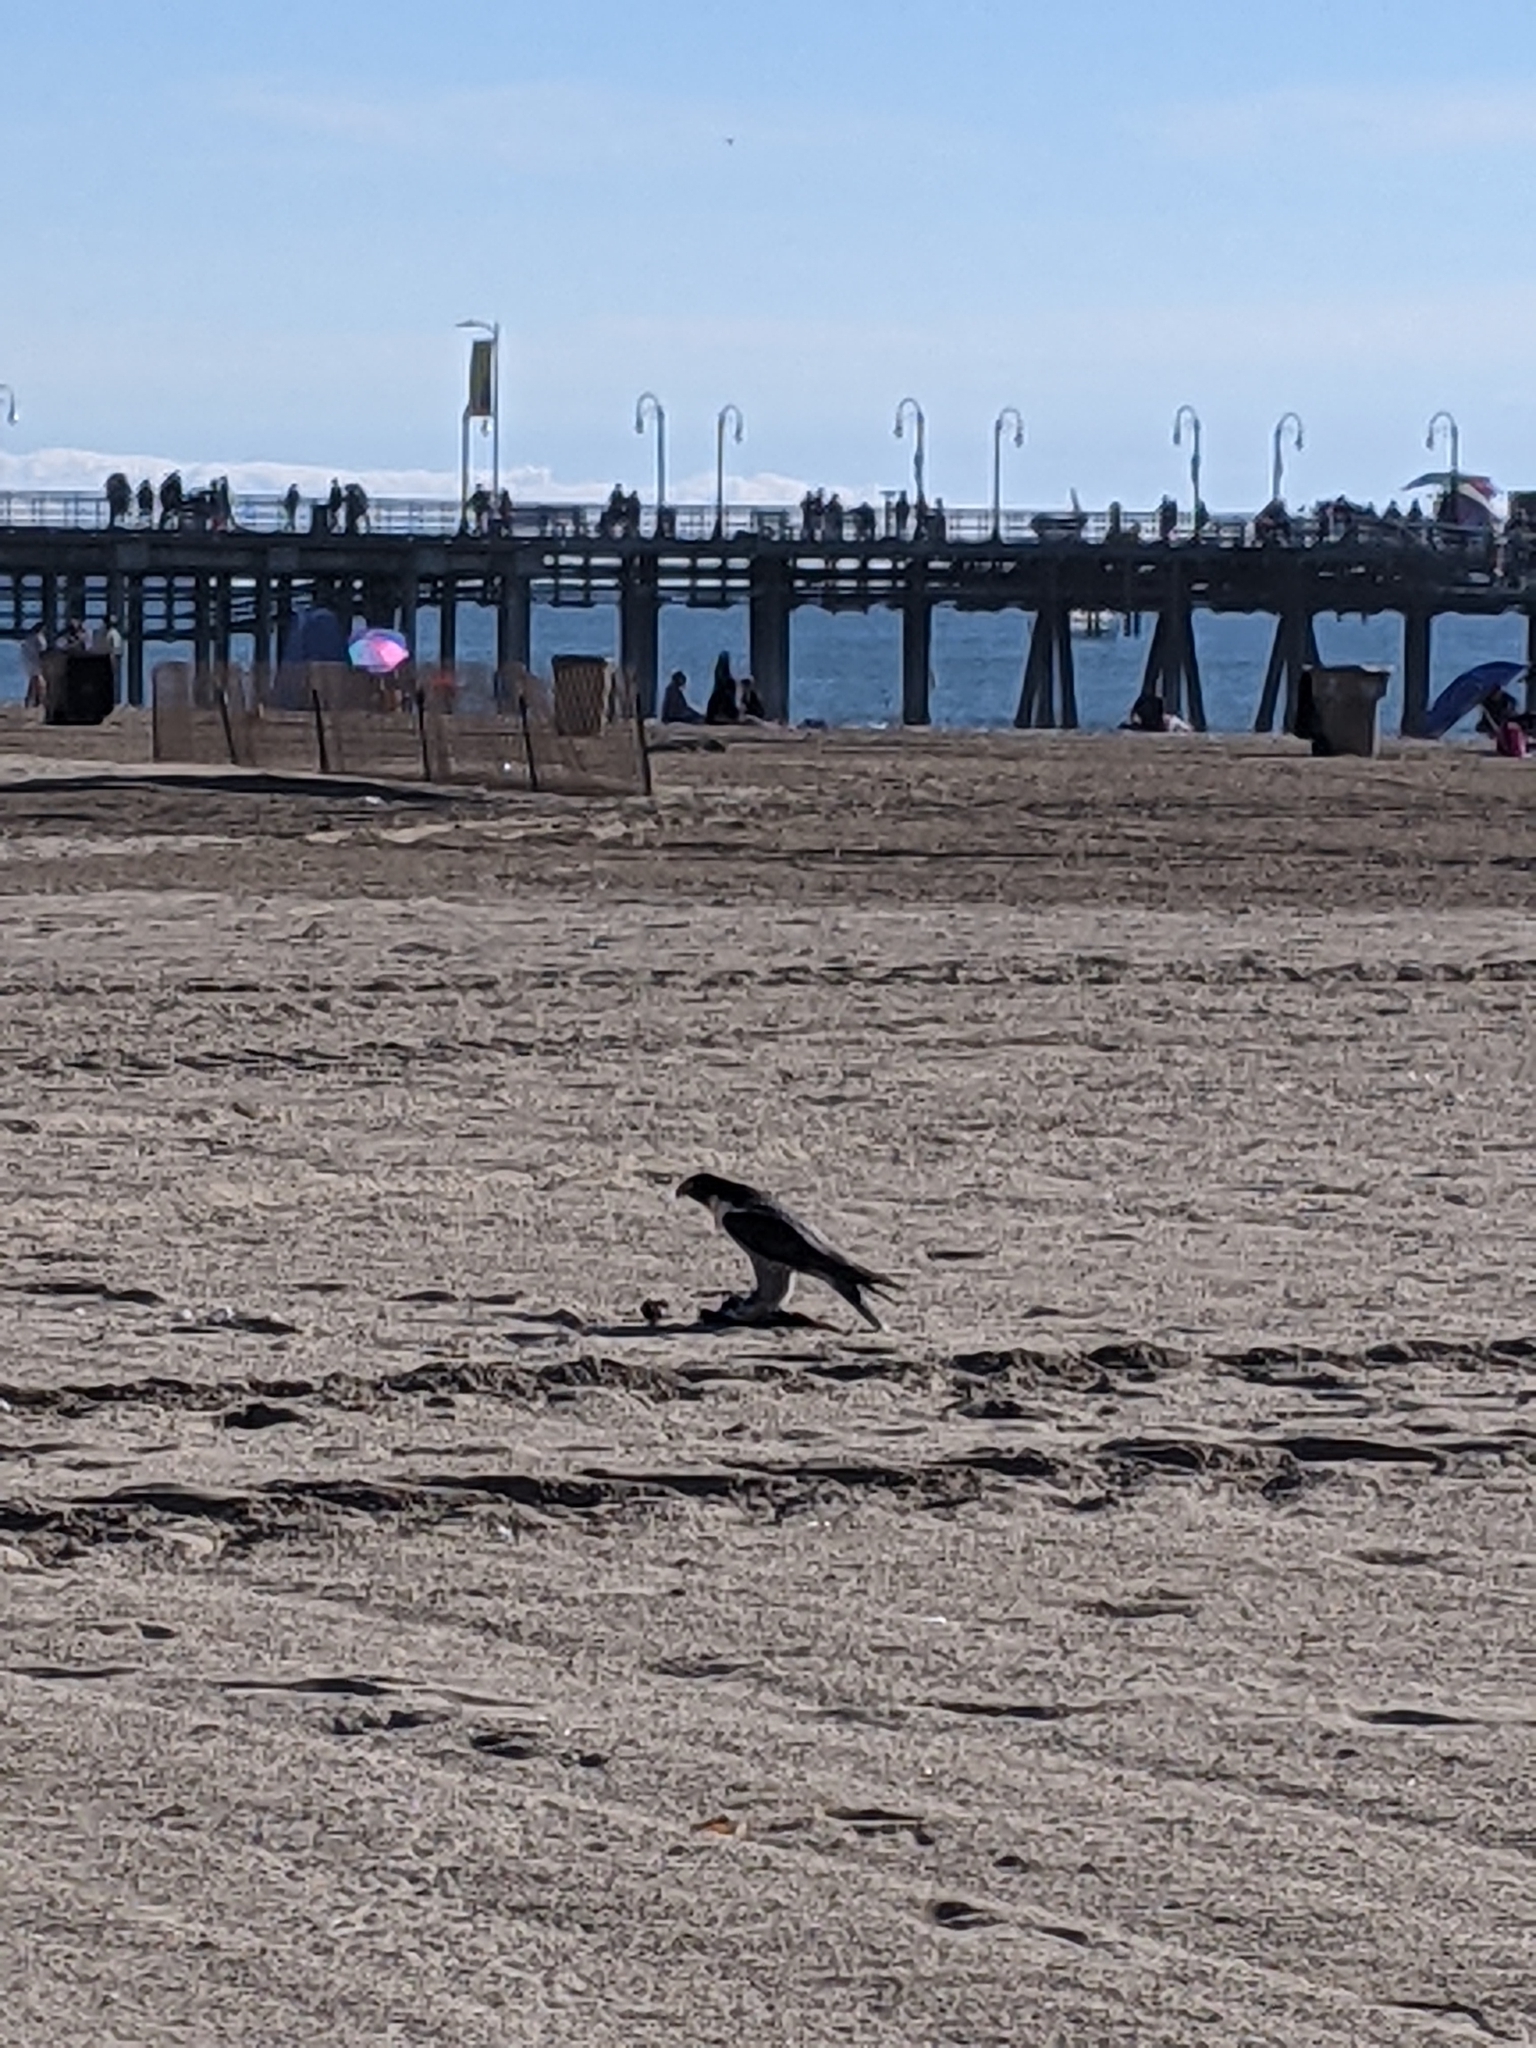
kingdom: Animalia
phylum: Chordata
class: Aves
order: Falconiformes
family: Falconidae
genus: Falco
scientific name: Falco peregrinus
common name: Peregrine falcon
